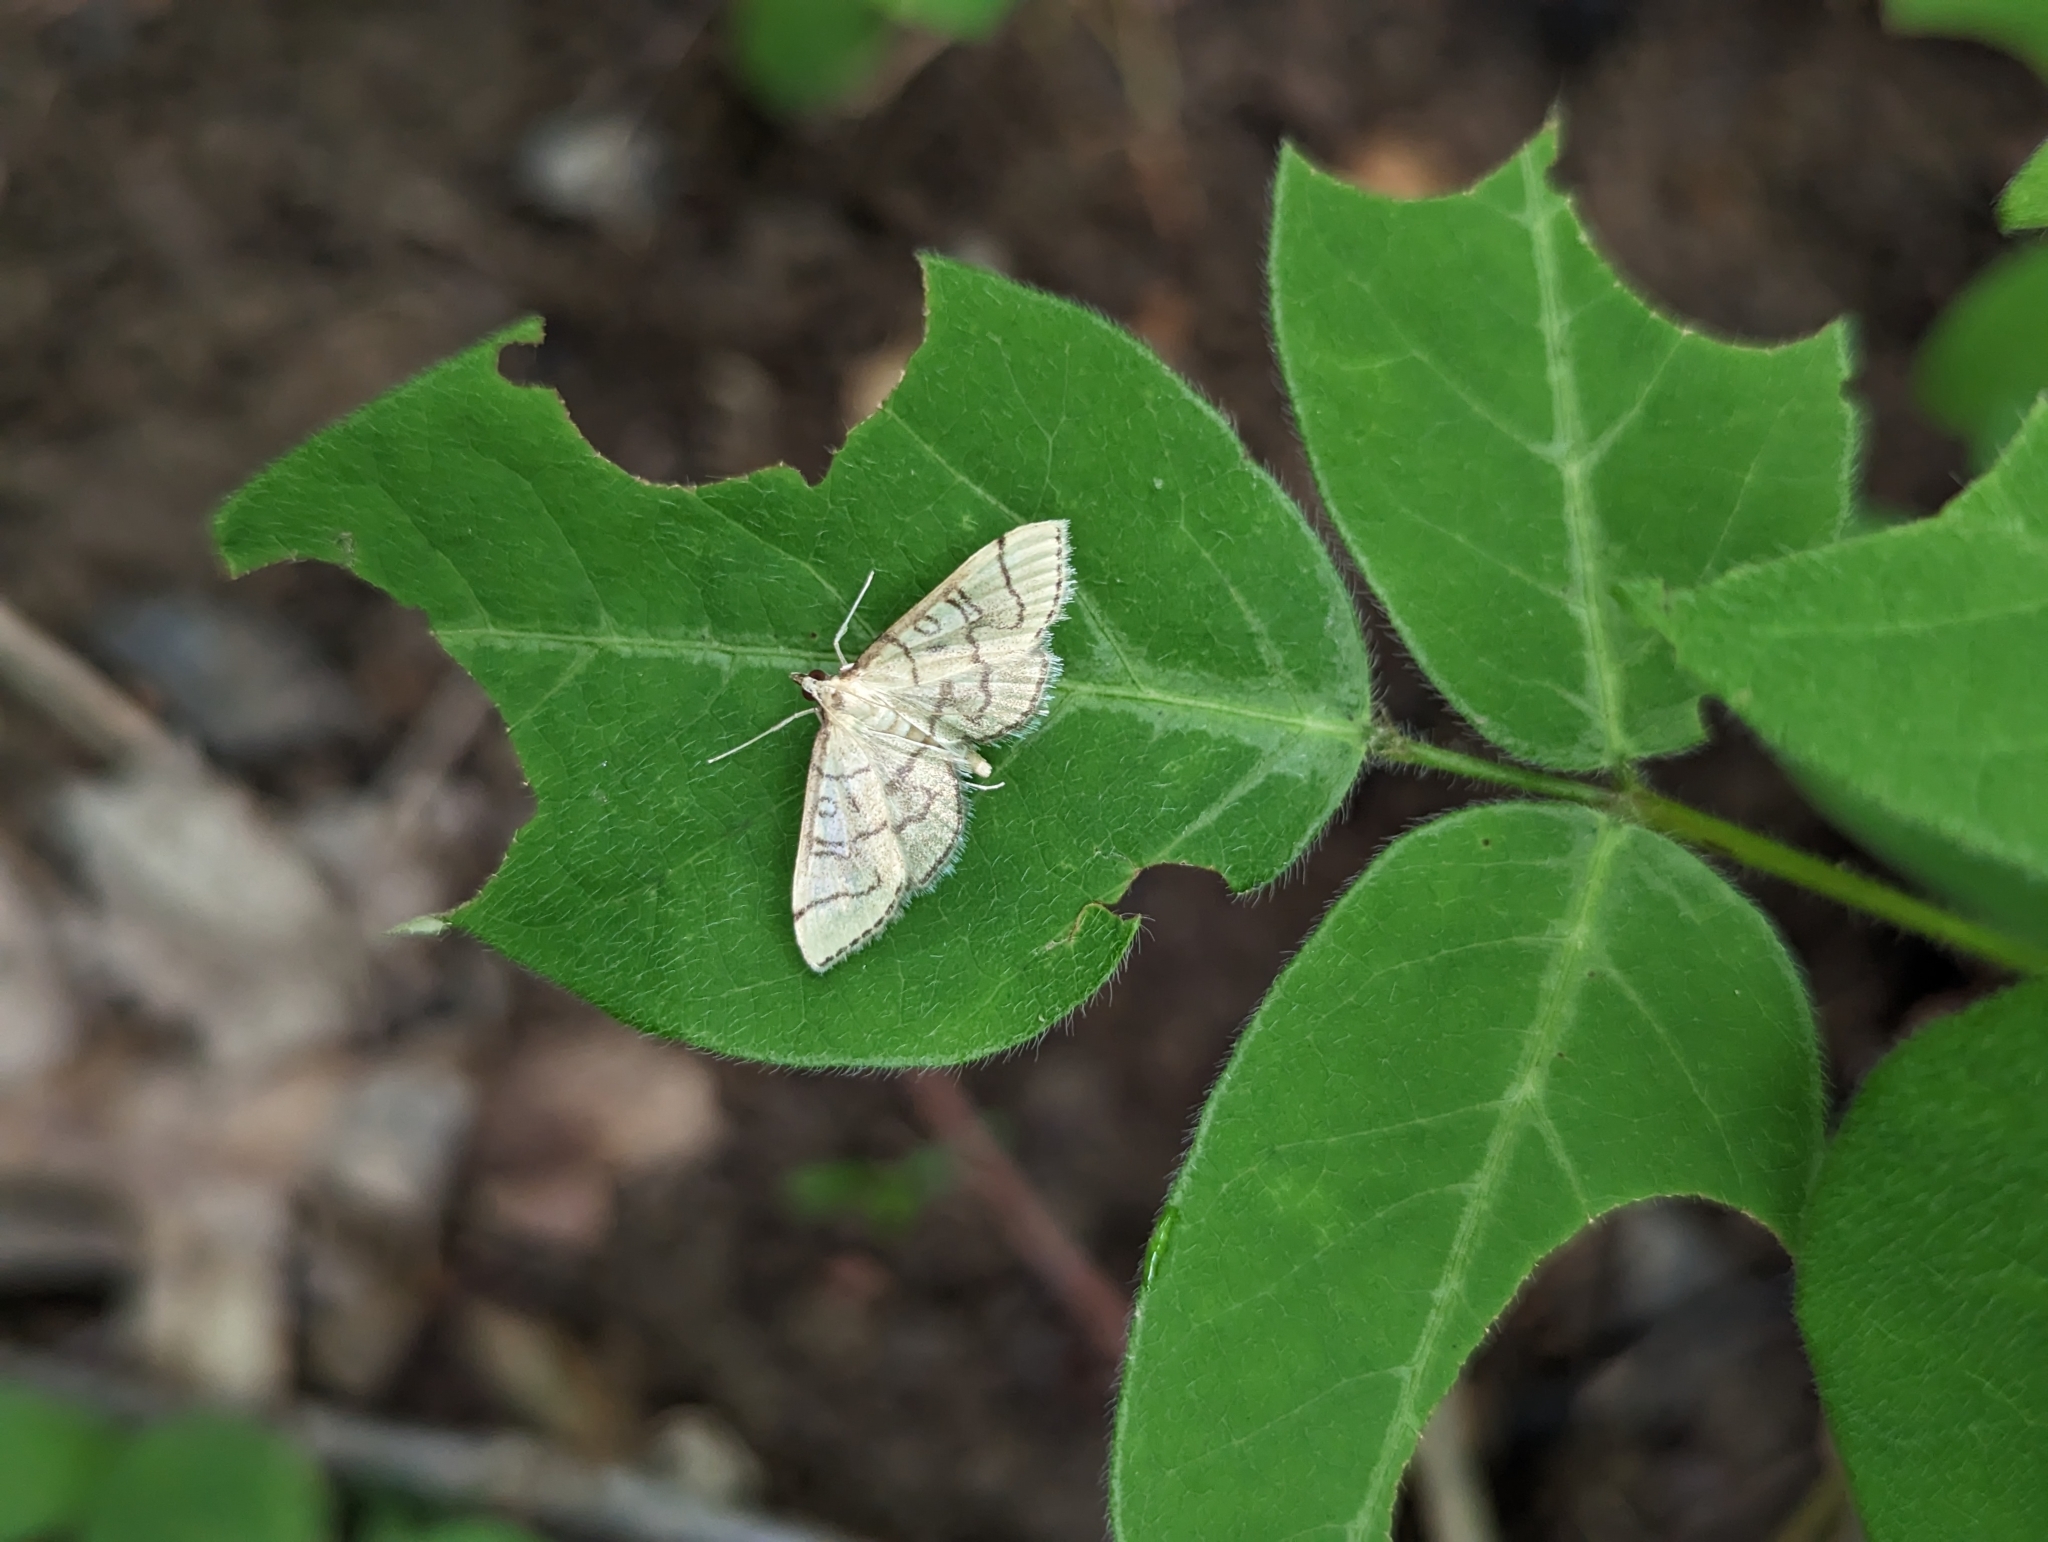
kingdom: Animalia
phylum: Arthropoda
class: Insecta
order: Lepidoptera
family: Crambidae
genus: Lamprosema
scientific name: Lamprosema Blepharomastix ranalis
